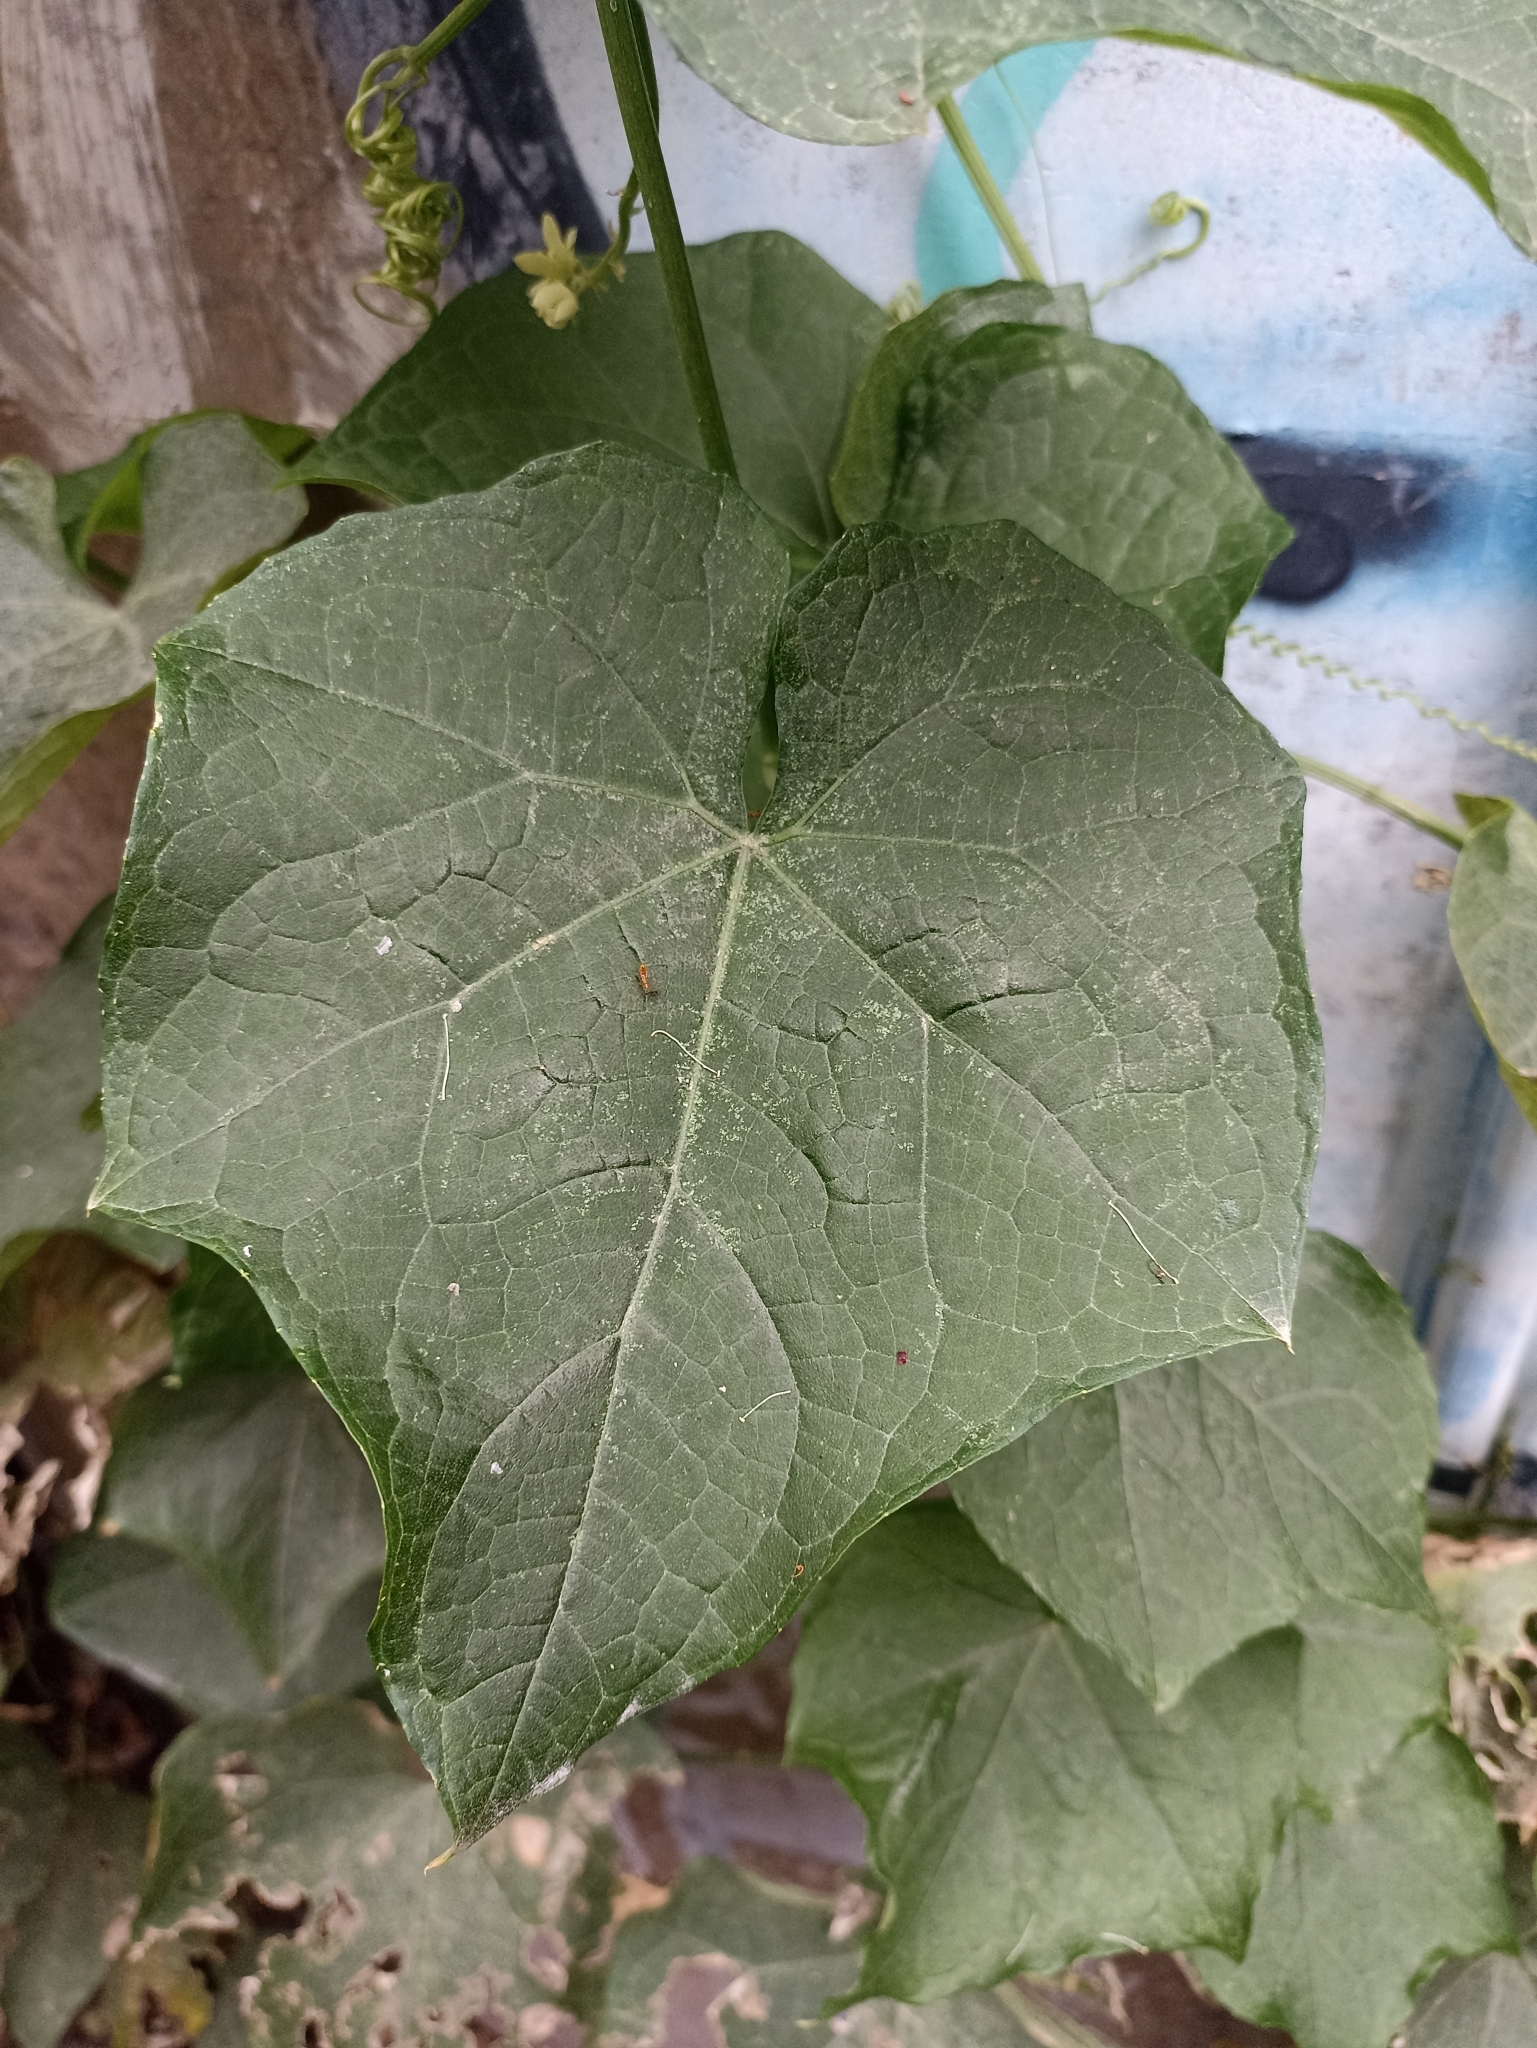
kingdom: Plantae
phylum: Tracheophyta
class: Magnoliopsida
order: Cucurbitales
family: Cucurbitaceae
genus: Sechium
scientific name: Sechium edule
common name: Chayote
